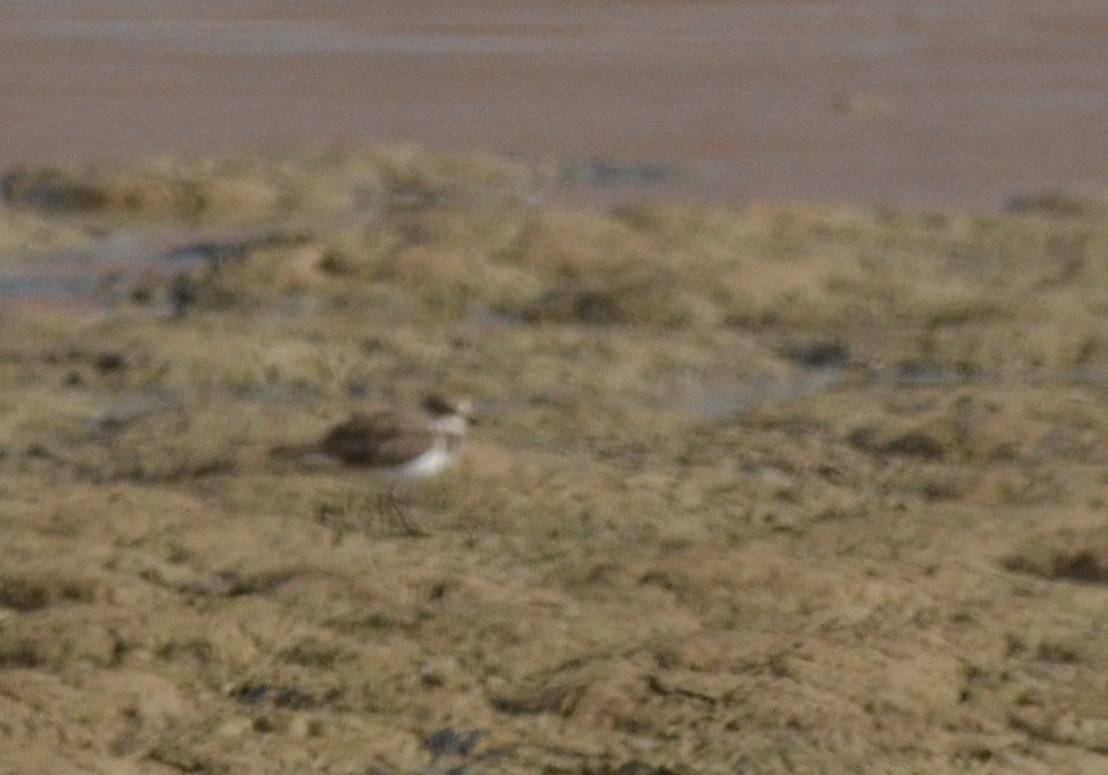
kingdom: Animalia
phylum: Chordata
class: Aves
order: Charadriiformes
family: Charadriidae
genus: Charadrius
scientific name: Charadrius alexandrinus
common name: Kentish plover
